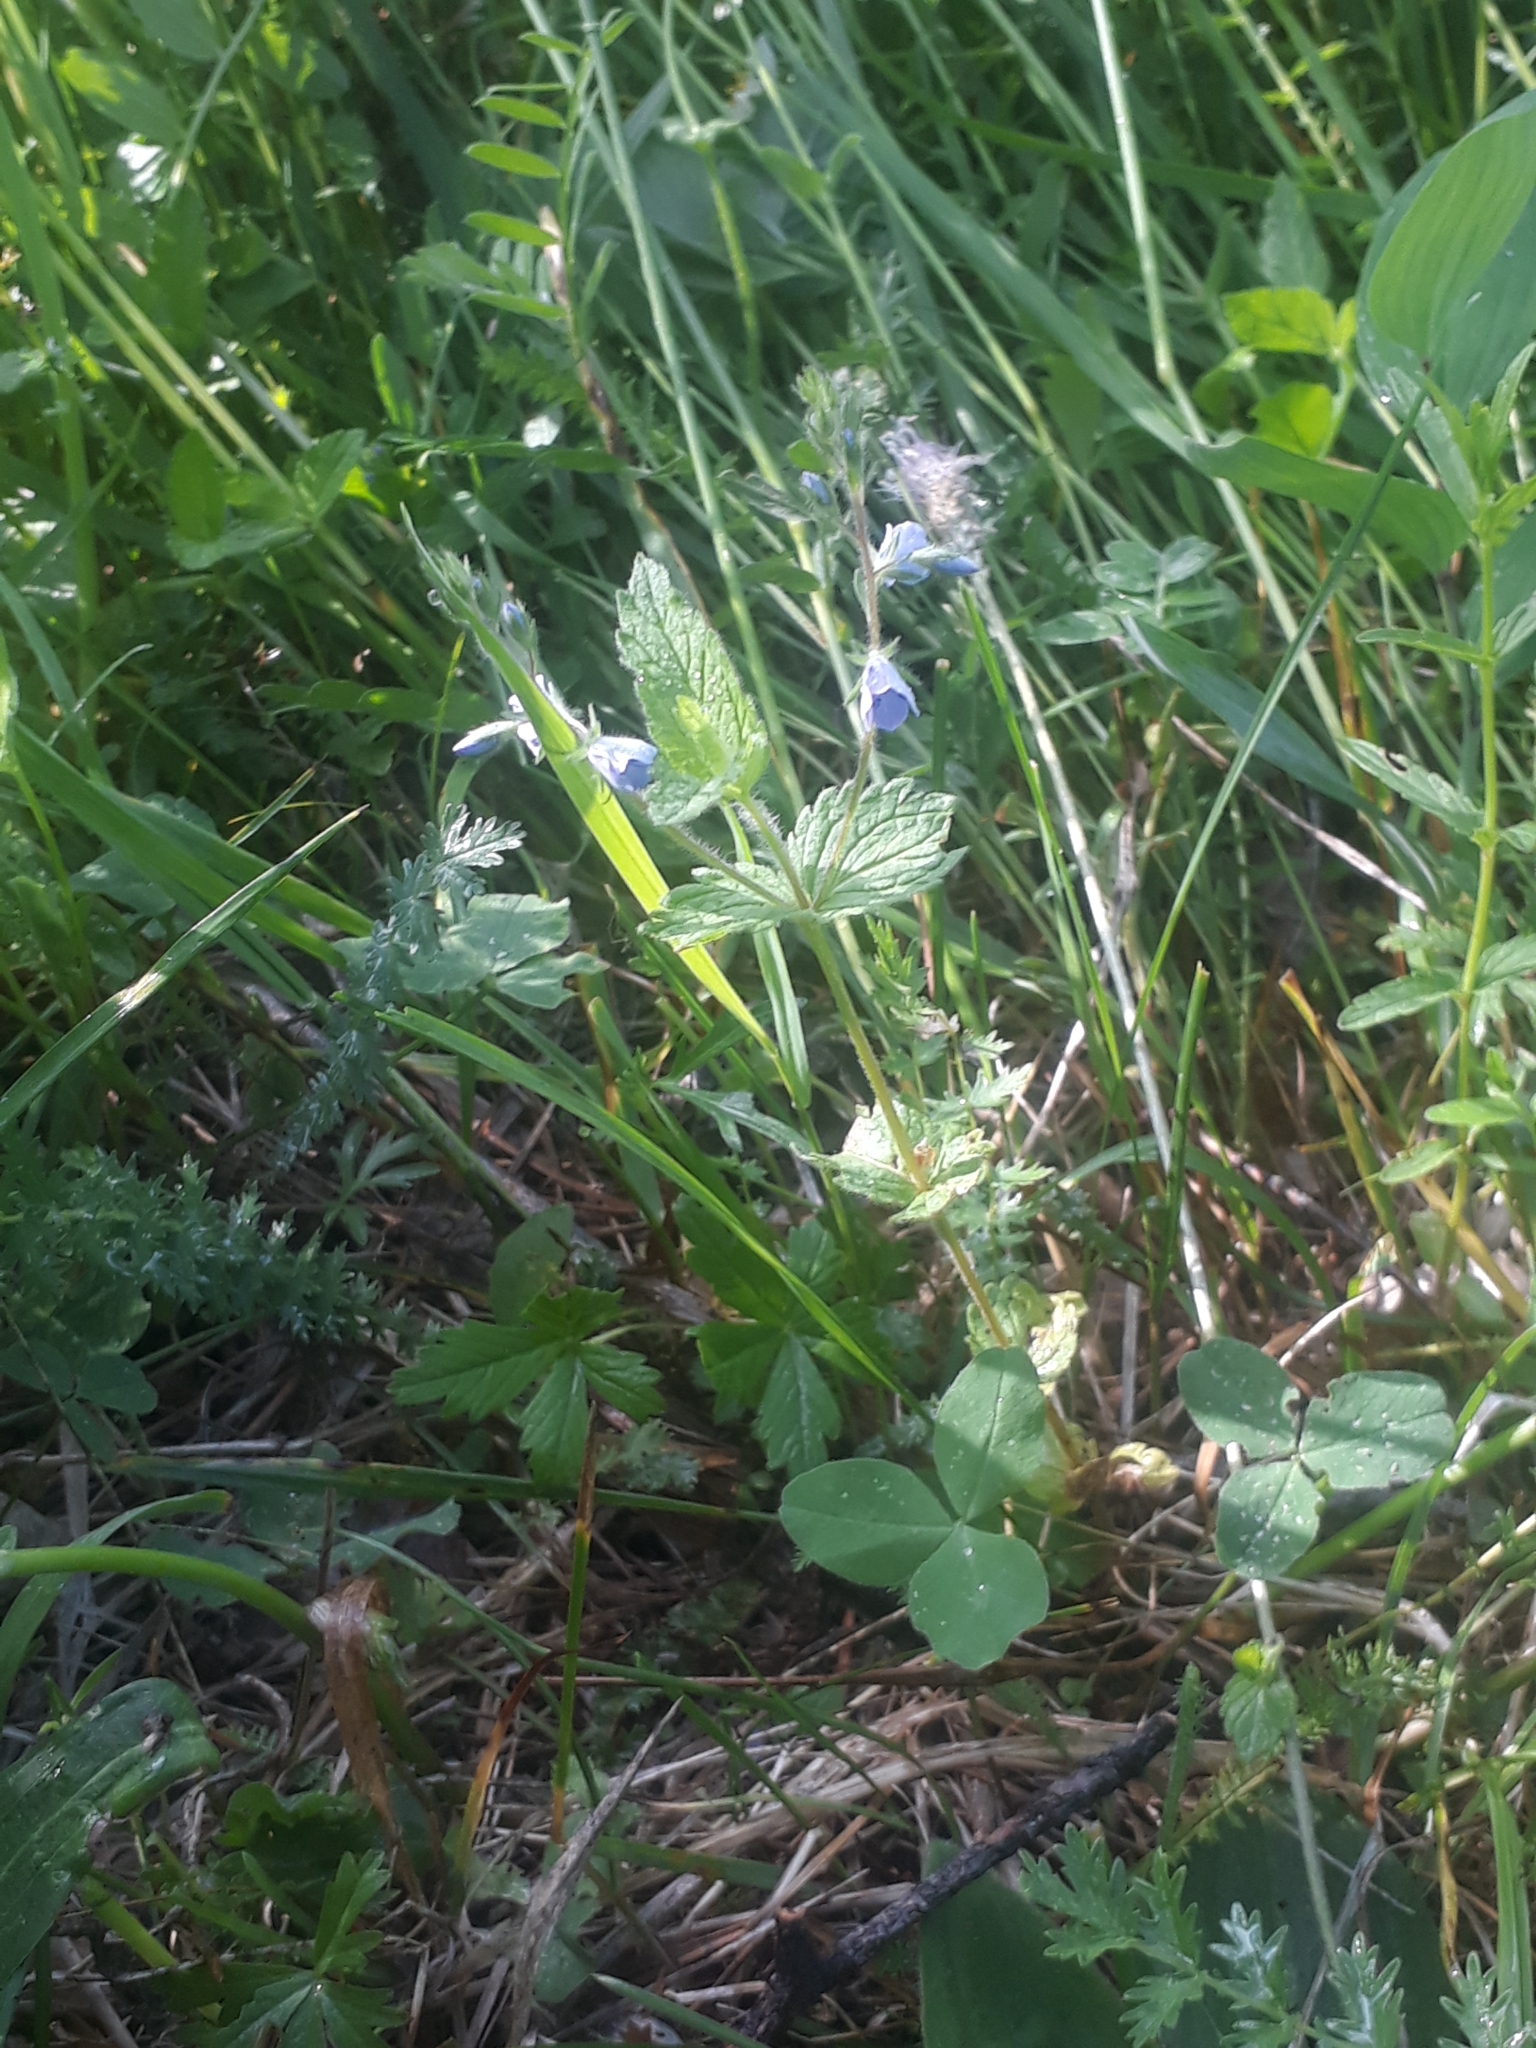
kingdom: Plantae
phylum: Tracheophyta
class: Magnoliopsida
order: Lamiales
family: Plantaginaceae
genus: Veronica
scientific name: Veronica chamaedrys
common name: Germander speedwell
